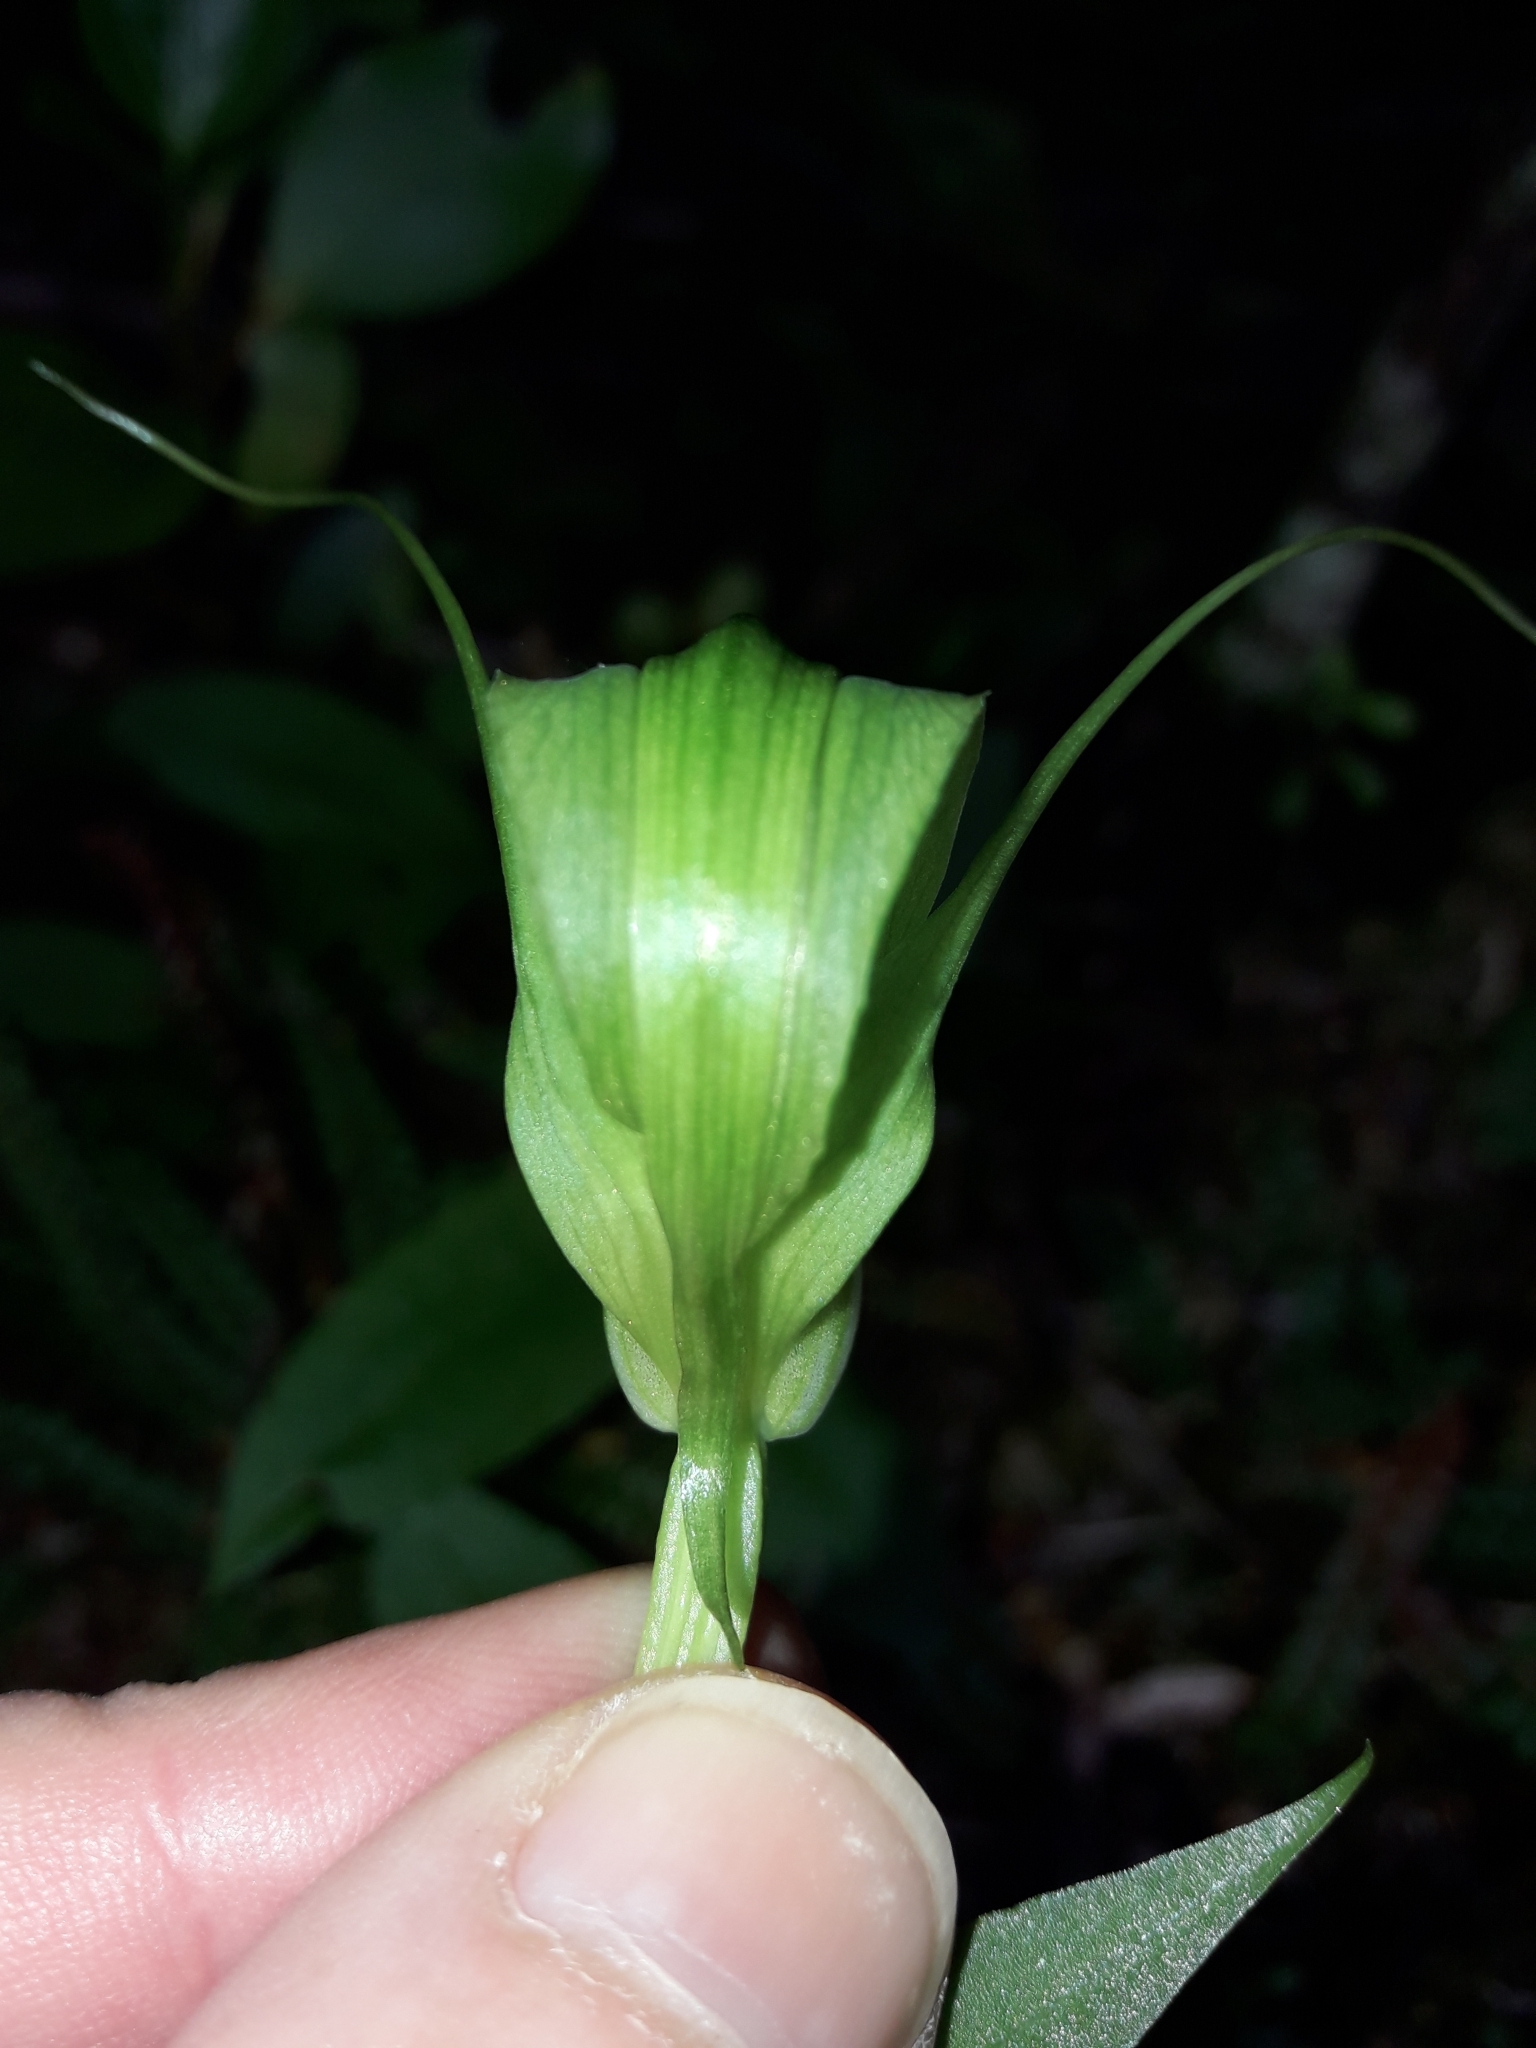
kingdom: Plantae
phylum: Tracheophyta
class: Liliopsida
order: Asparagales
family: Orchidaceae
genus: Pterostylis
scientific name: Pterostylis oliveri
